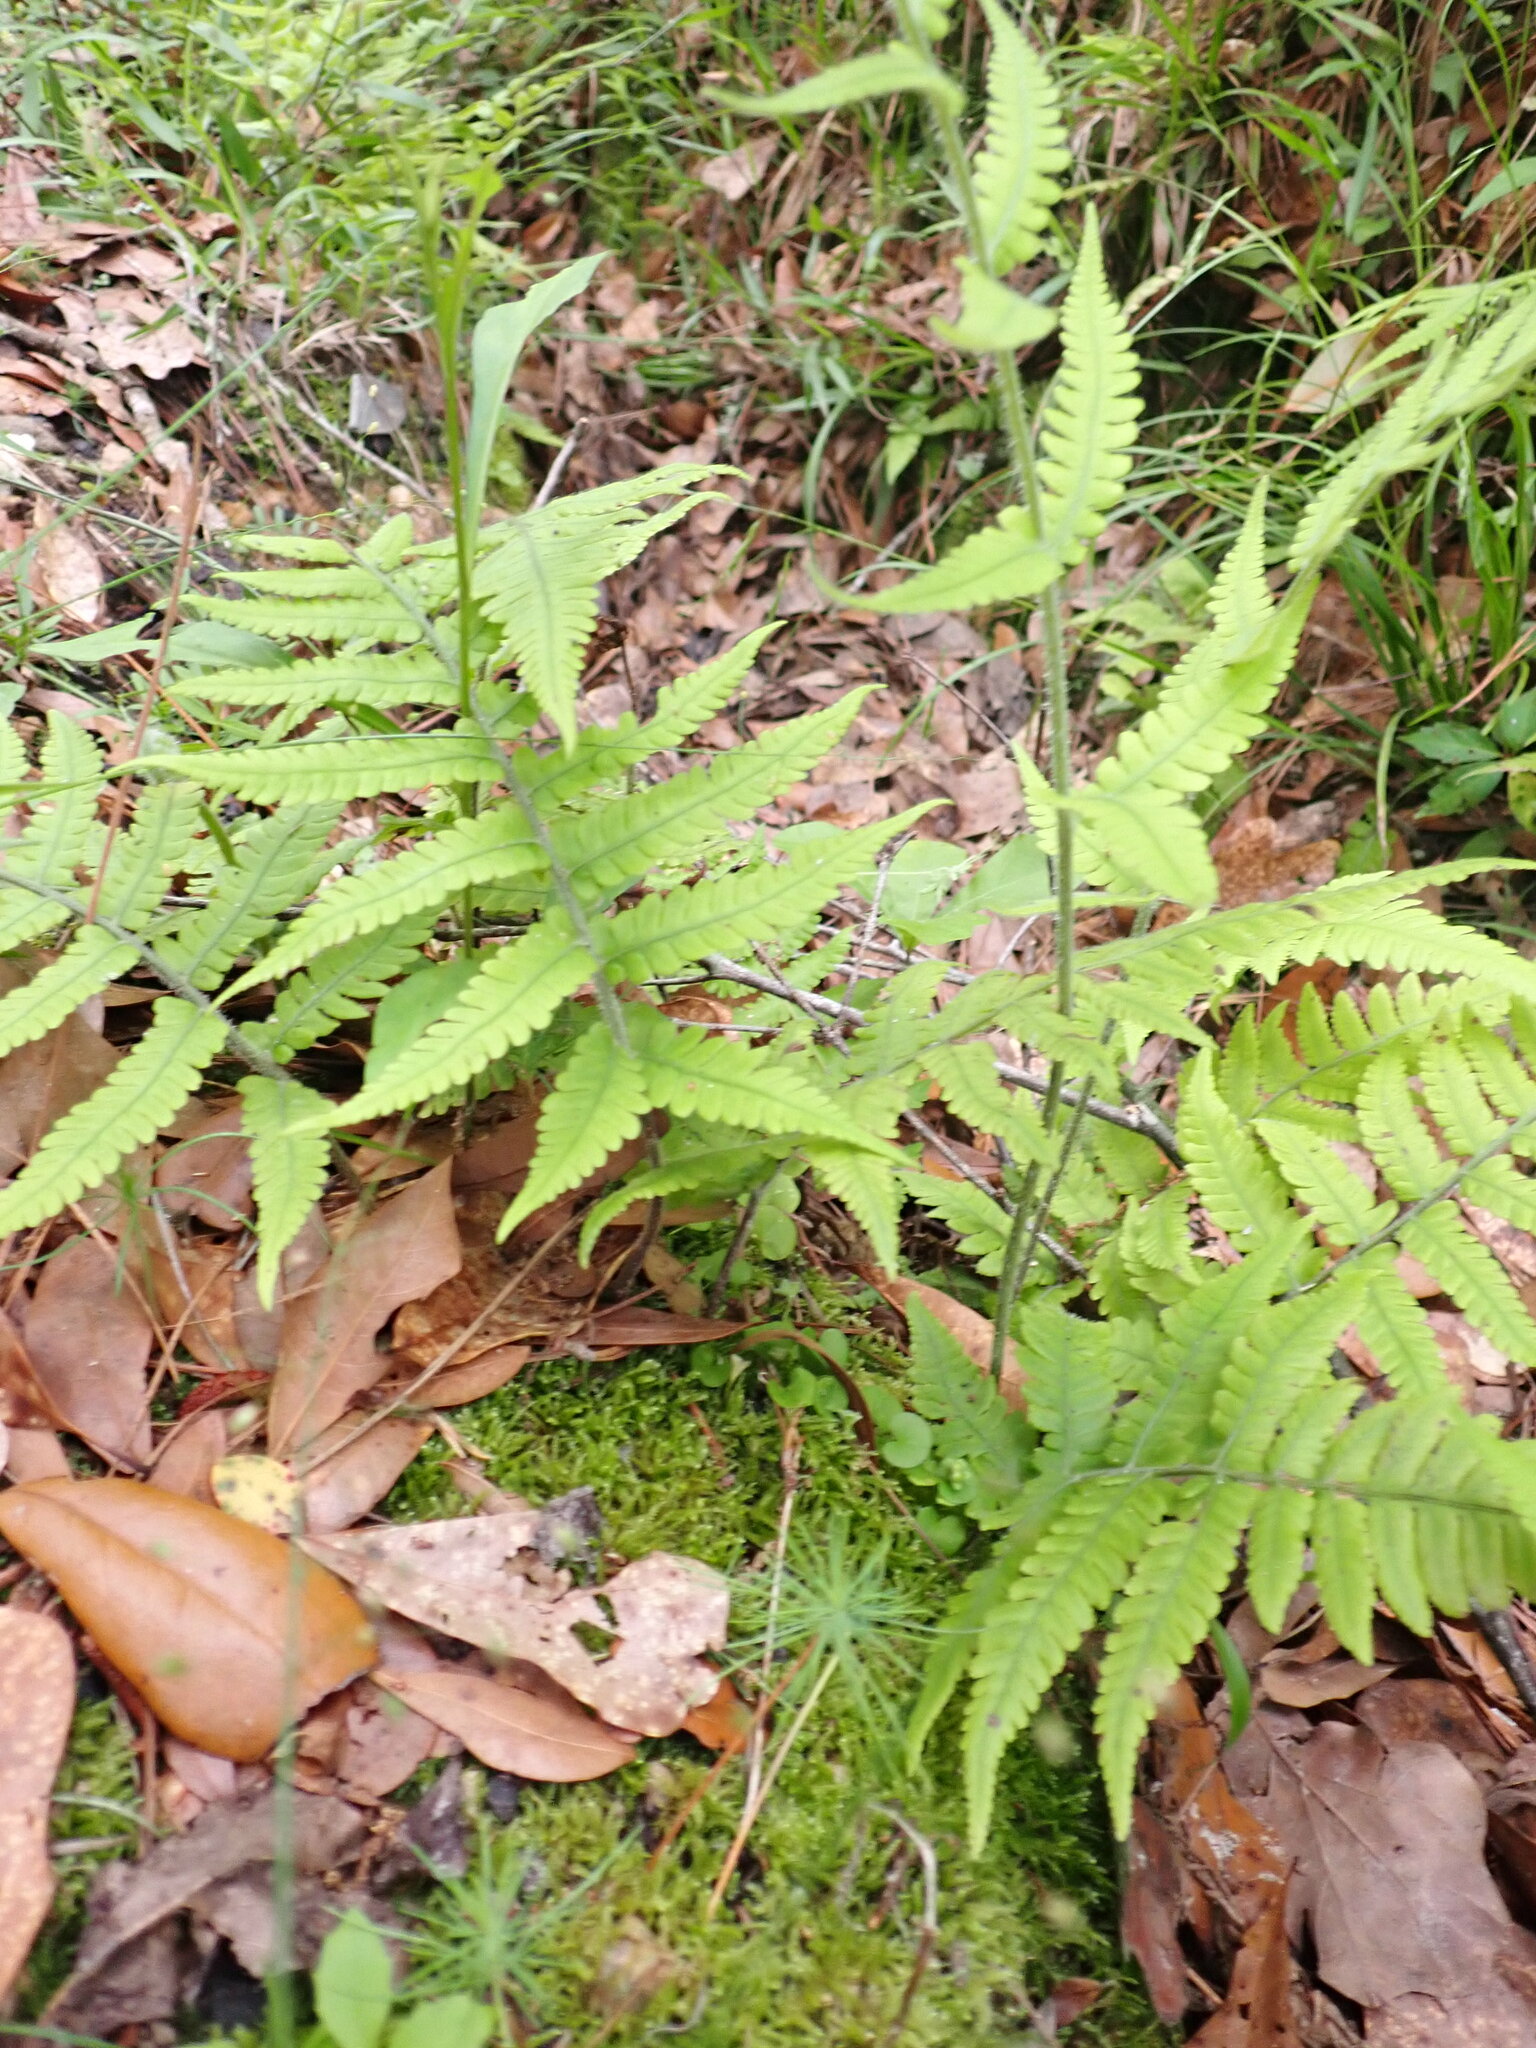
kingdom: Plantae
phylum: Tracheophyta
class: Polypodiopsida
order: Polypodiales
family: Athyriaceae
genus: Deparia
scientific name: Deparia petersenii
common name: Japanese false spleenwort
